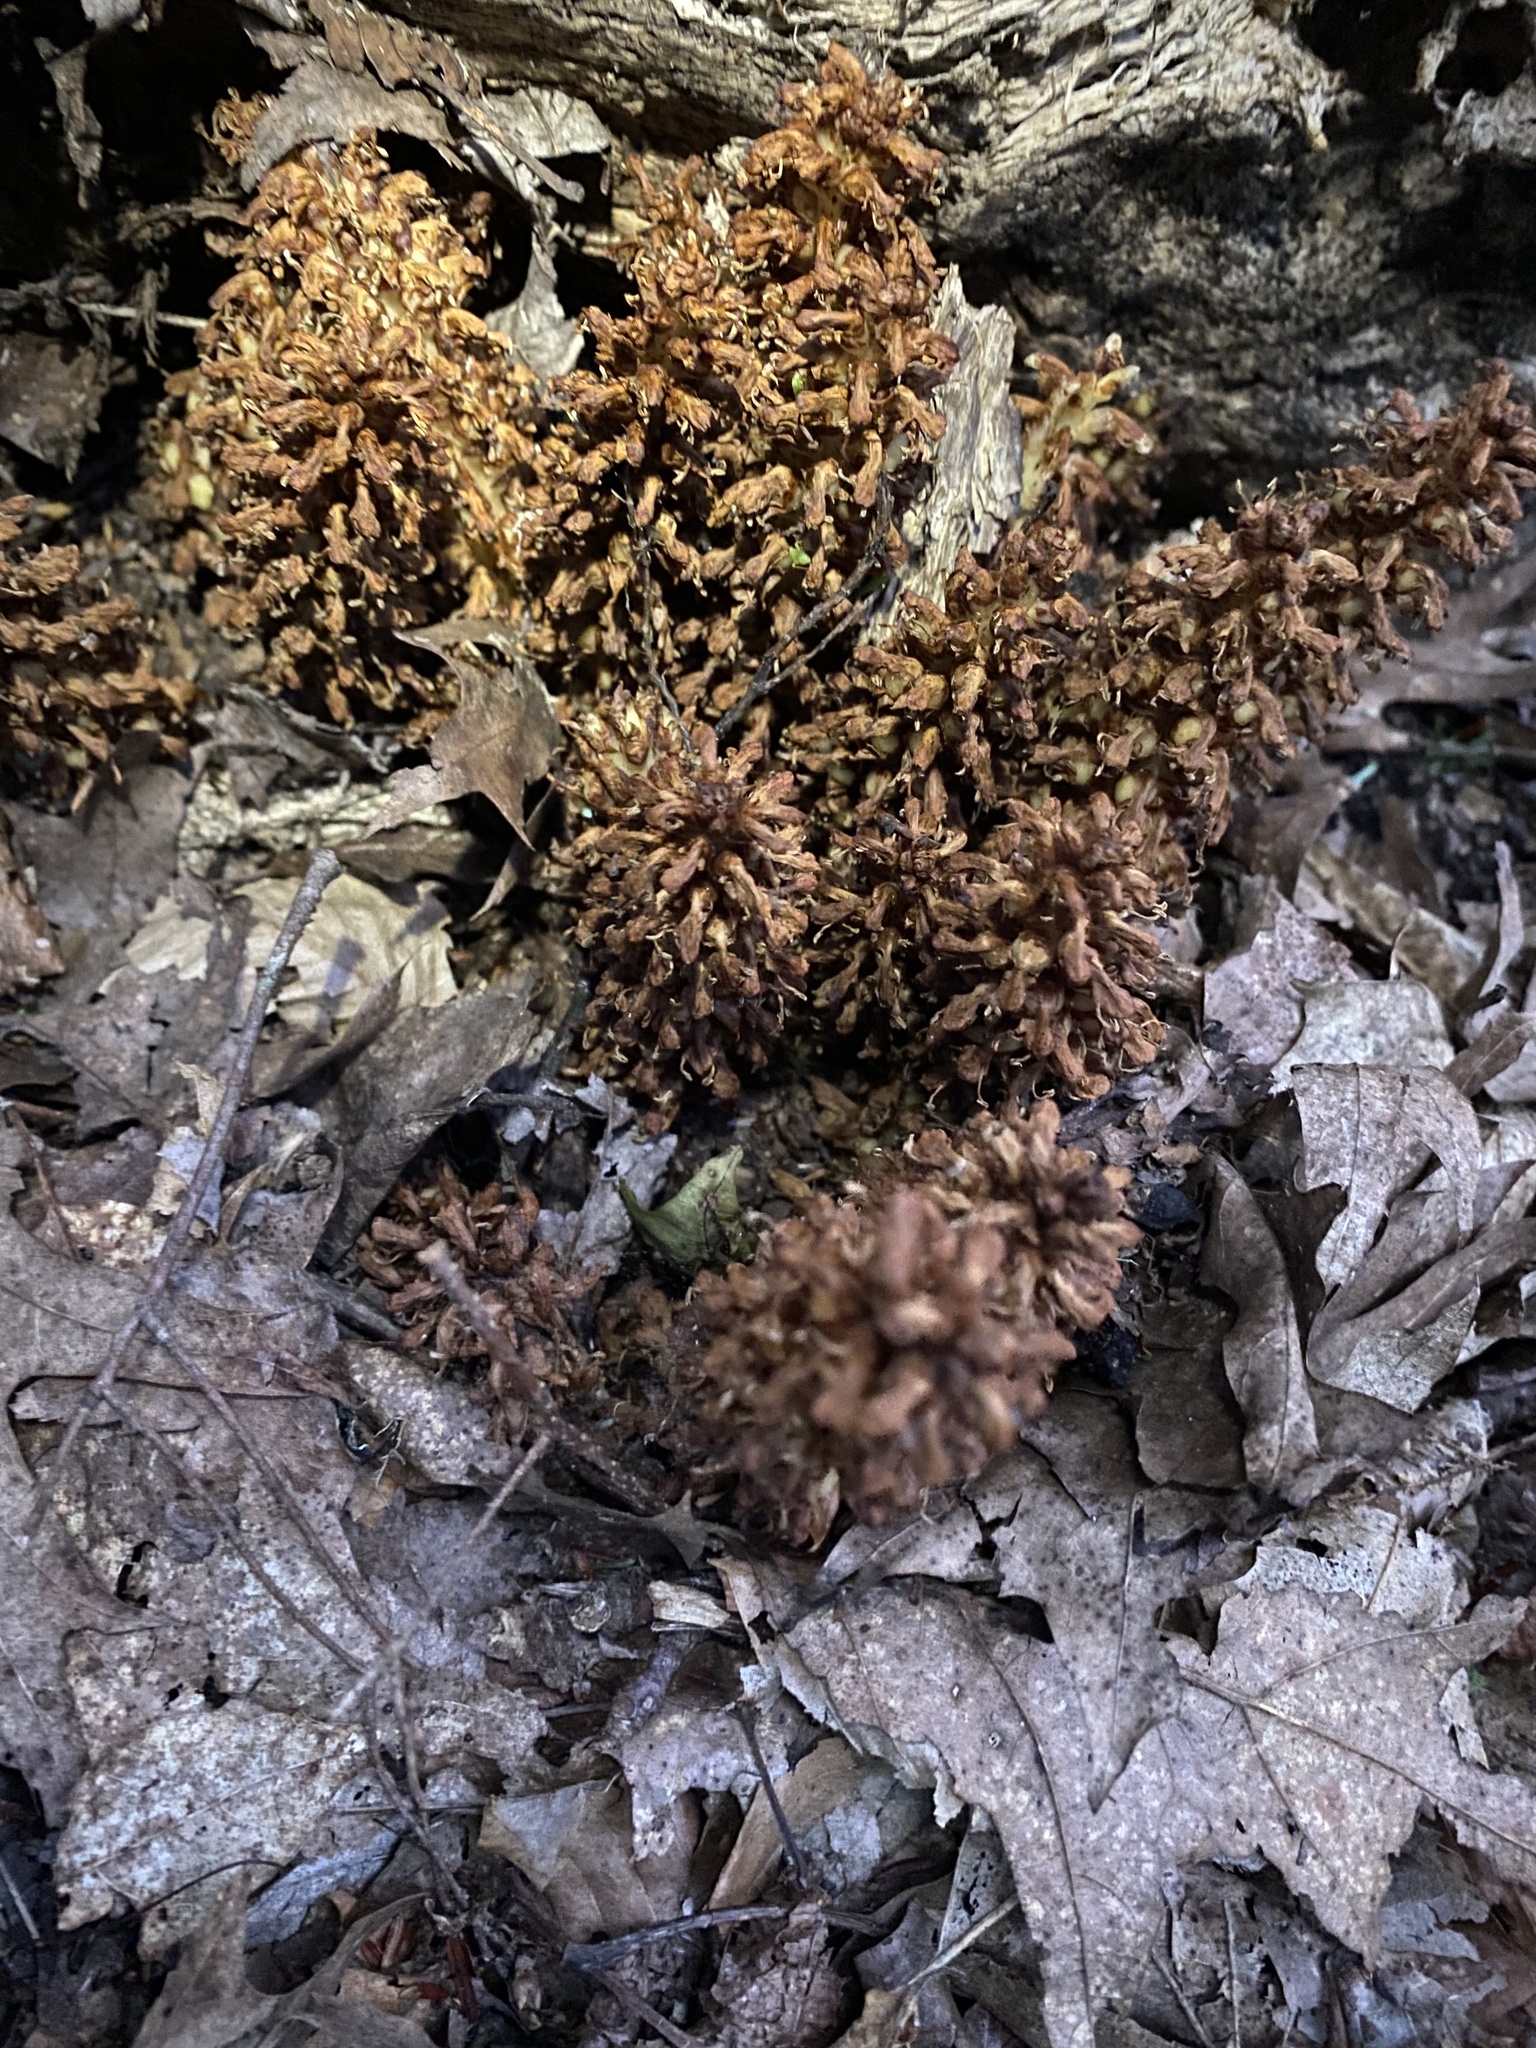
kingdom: Plantae
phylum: Tracheophyta
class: Magnoliopsida
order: Lamiales
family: Orobanchaceae
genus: Conopholis
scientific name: Conopholis americana
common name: American cancer-root
